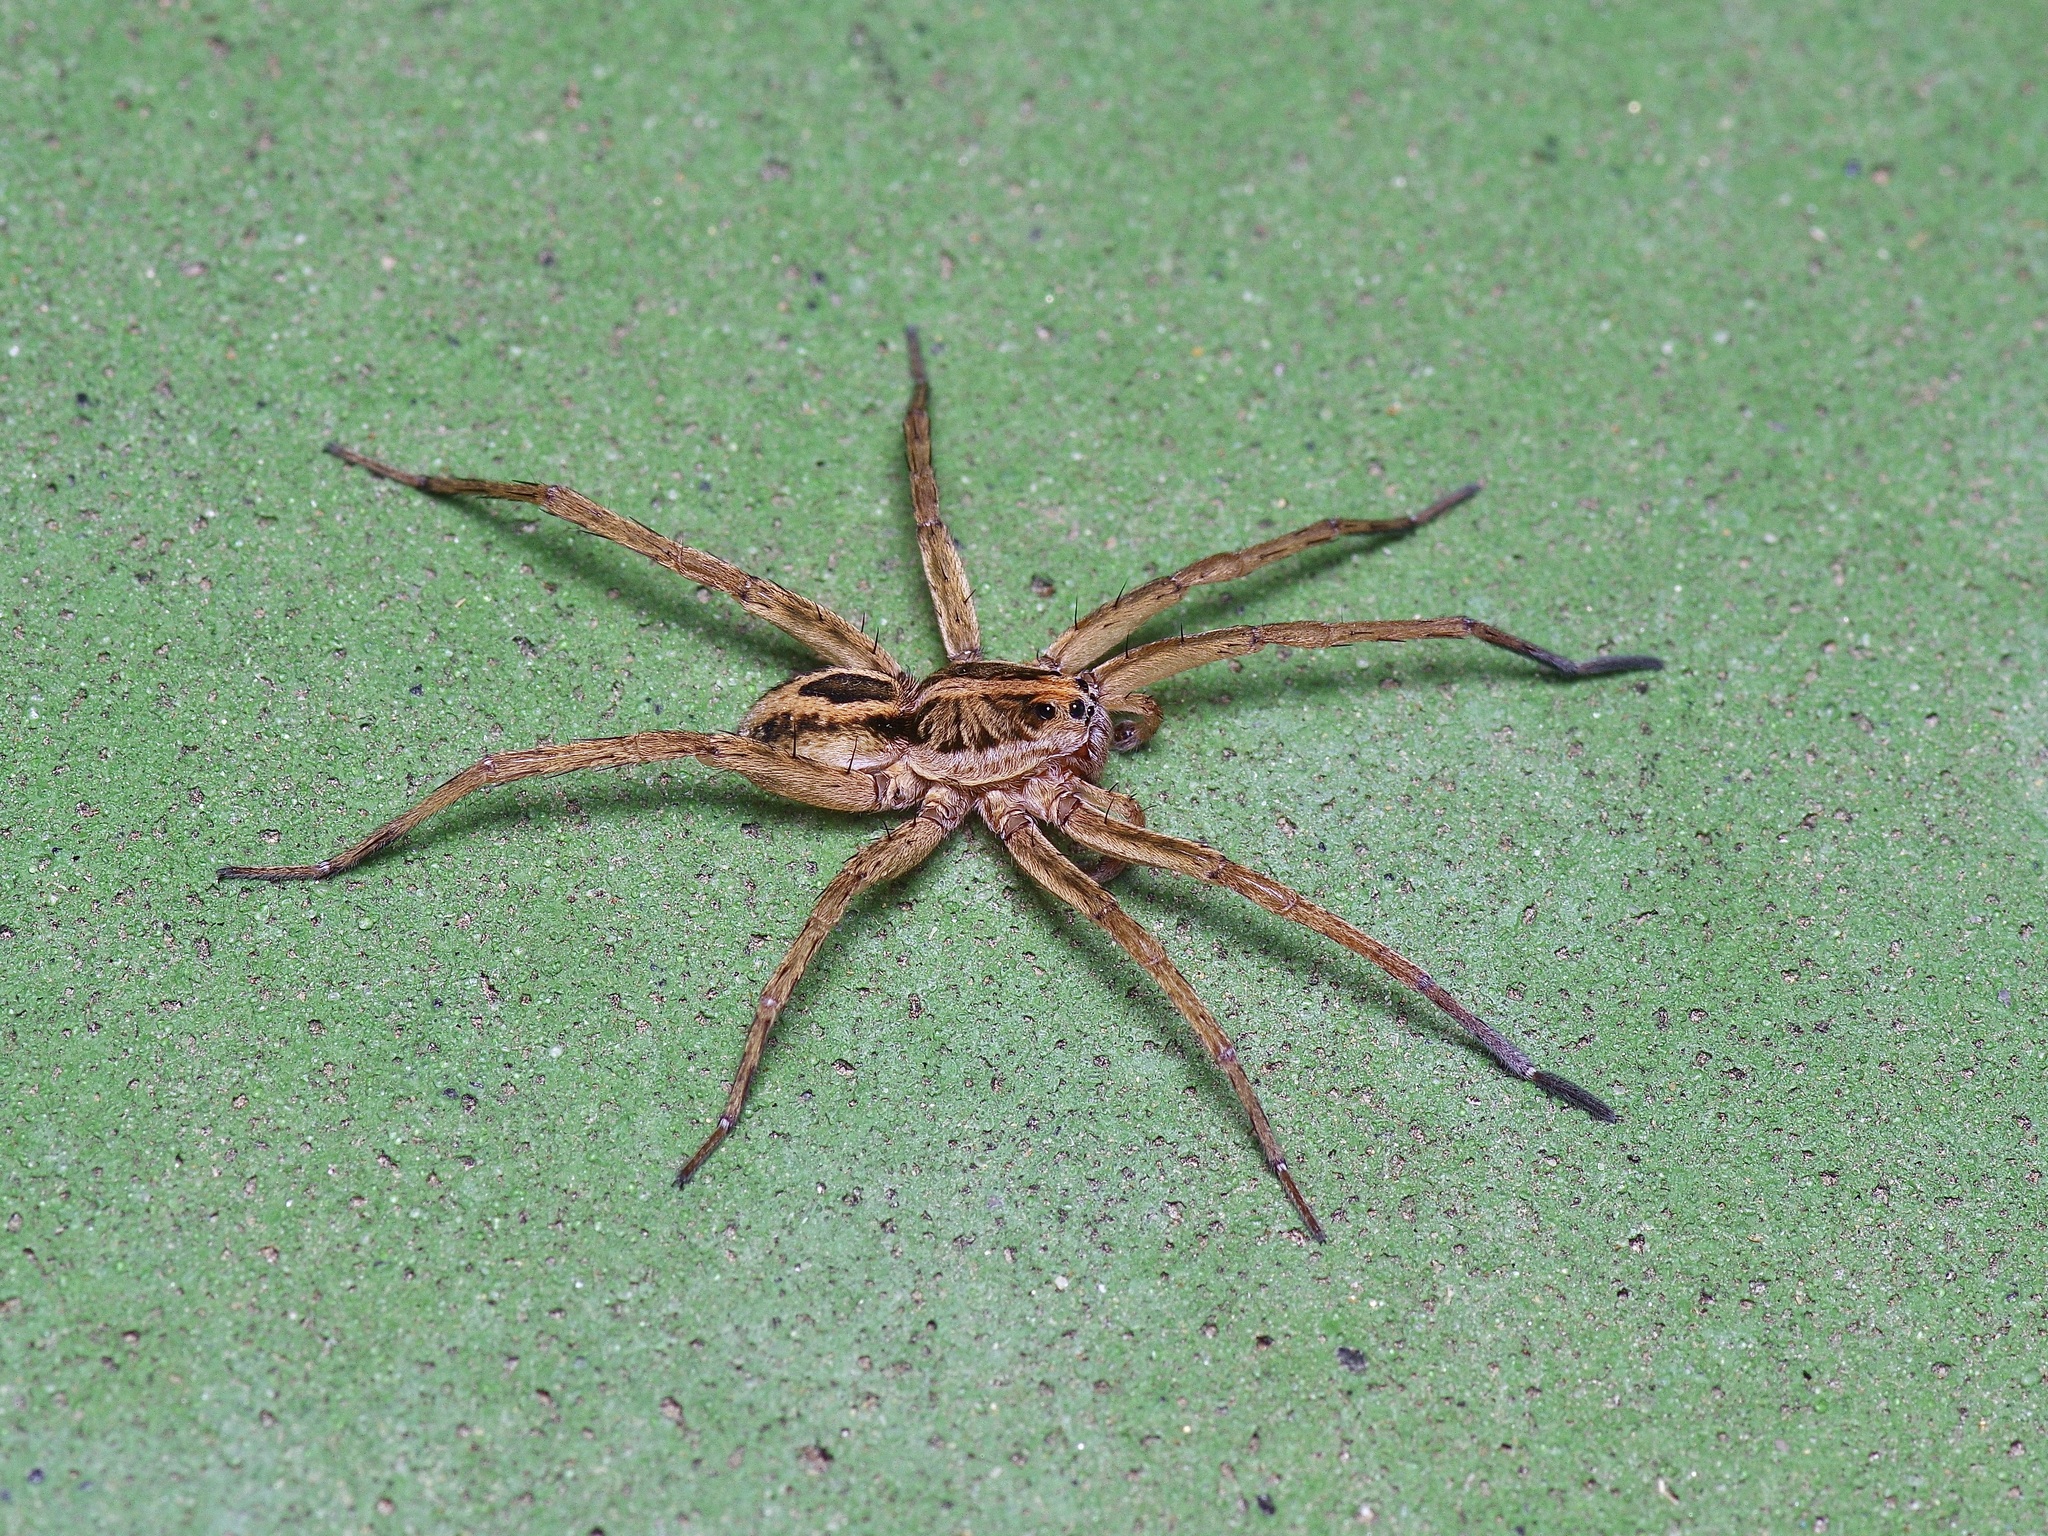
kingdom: Animalia
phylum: Arthropoda
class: Arachnida
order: Araneae
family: Lycosidae
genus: Tigrosa
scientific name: Tigrosa annexa
